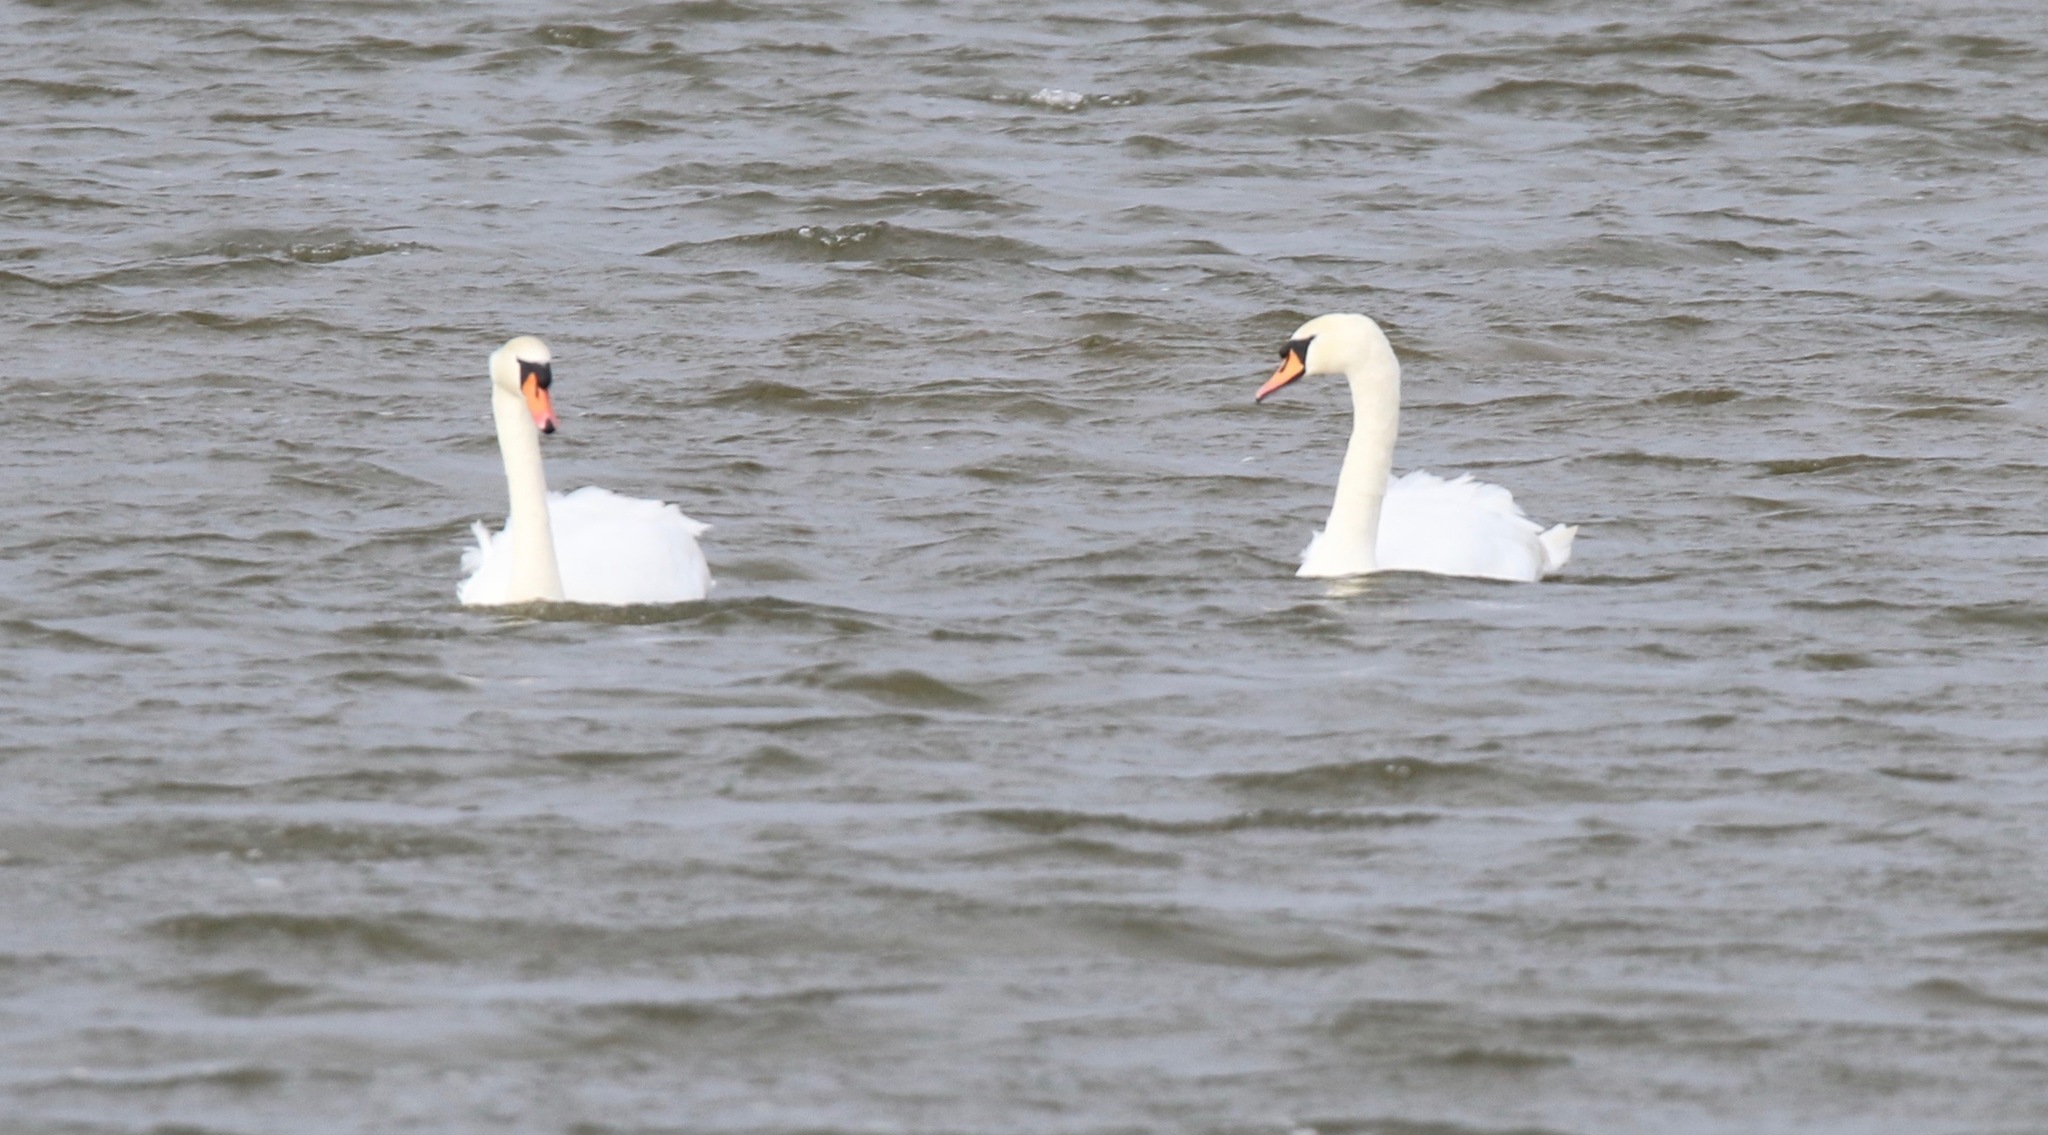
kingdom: Animalia
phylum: Chordata
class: Aves
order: Anseriformes
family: Anatidae
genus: Cygnus
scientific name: Cygnus olor
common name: Mute swan
